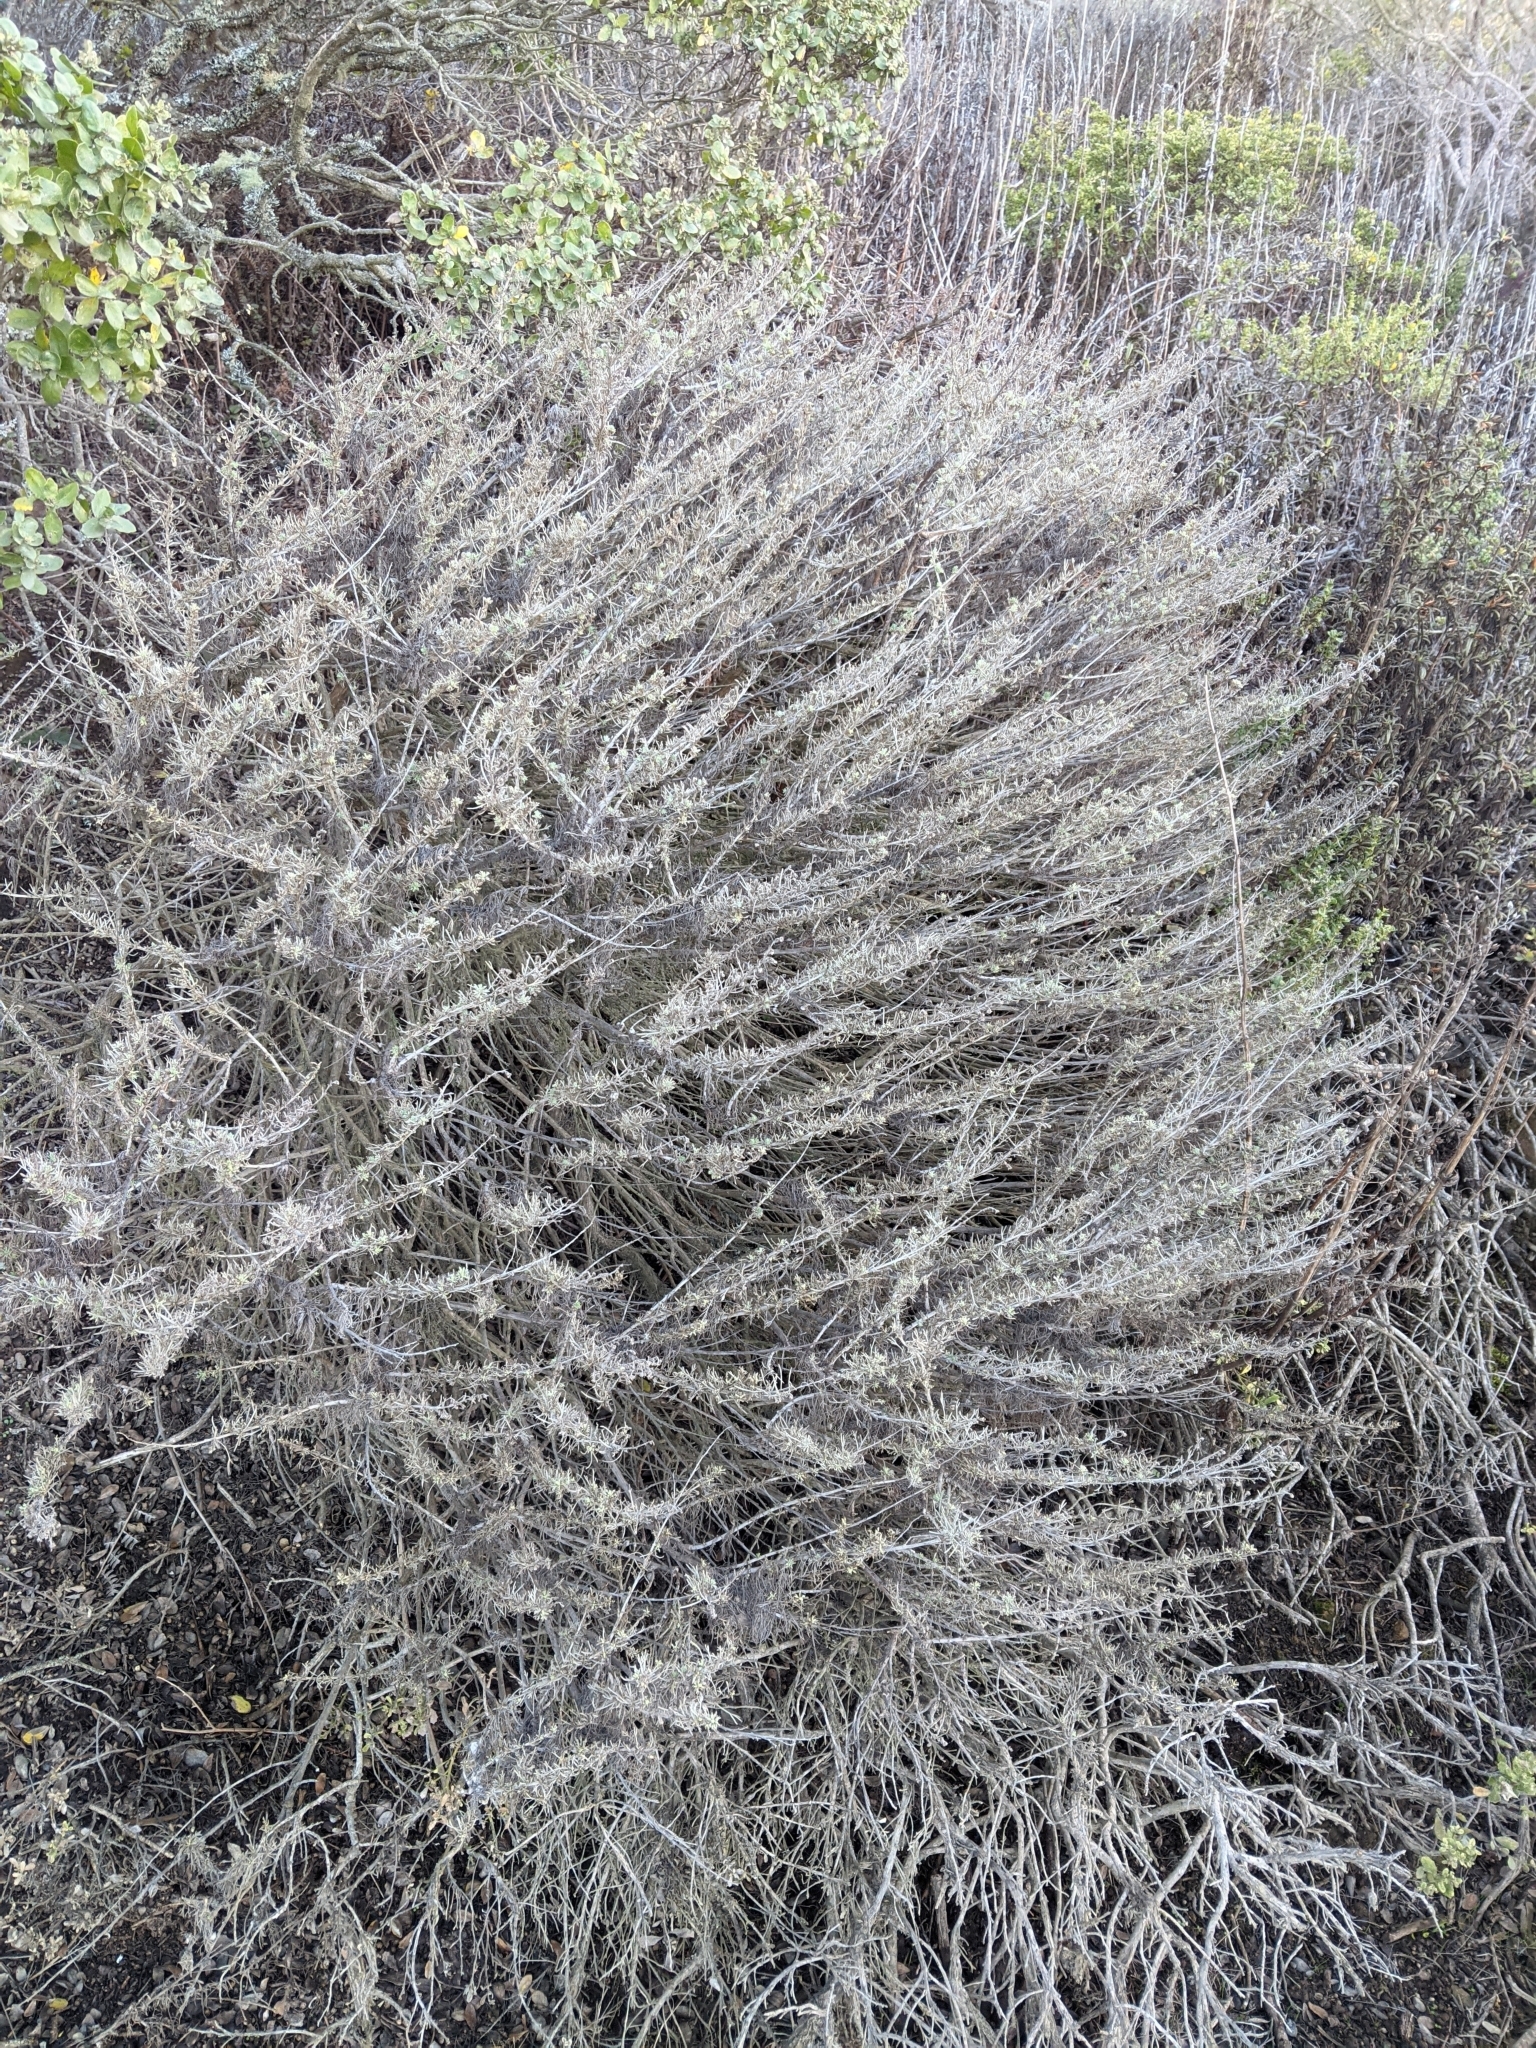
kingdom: Plantae
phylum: Tracheophyta
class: Magnoliopsida
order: Asterales
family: Asteraceae
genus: Artemisia
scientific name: Artemisia californica
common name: California sagebrush
